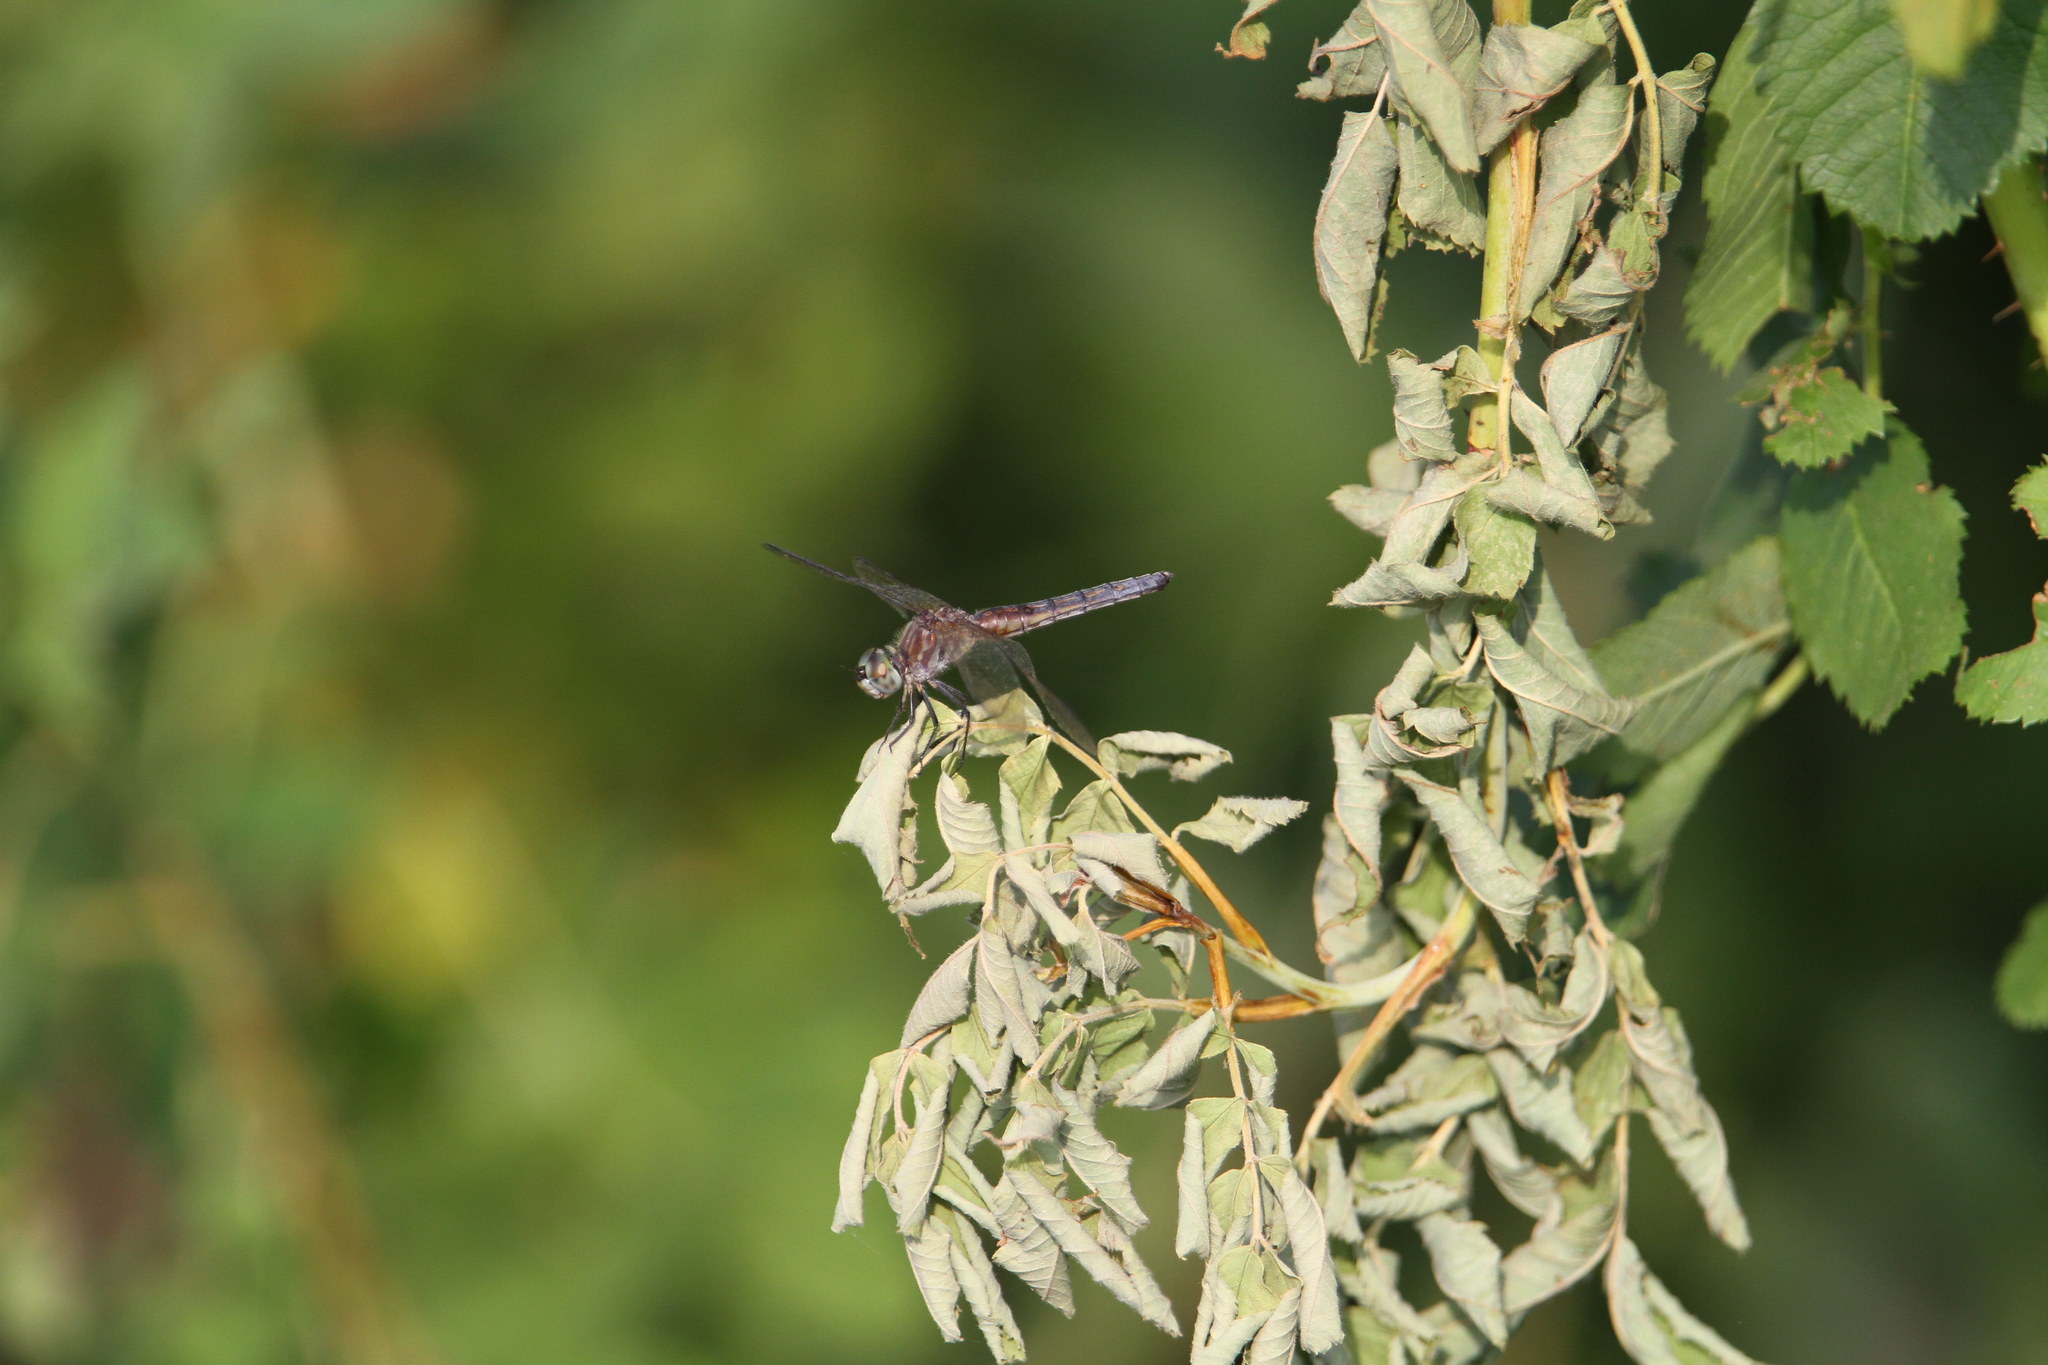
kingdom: Animalia
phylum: Arthropoda
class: Insecta
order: Odonata
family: Libellulidae
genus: Pachydiplax
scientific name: Pachydiplax longipennis
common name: Blue dasher
